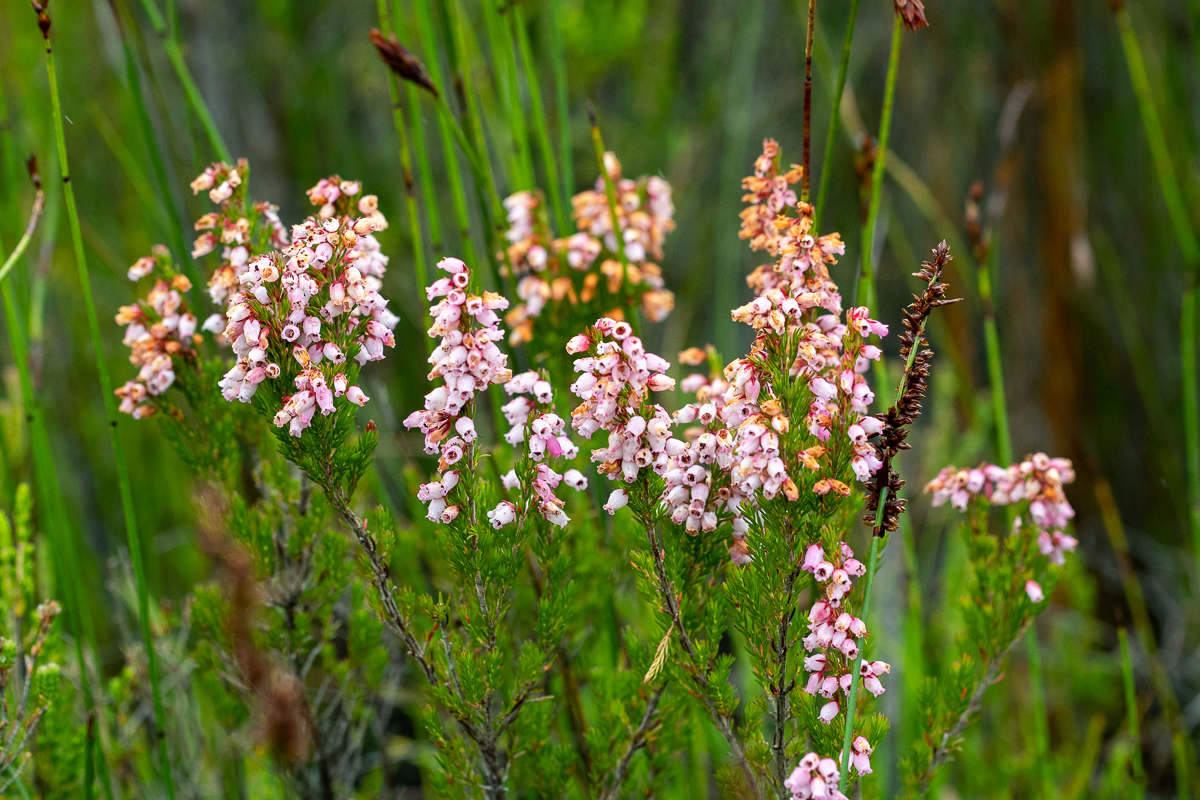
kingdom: Plantae
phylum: Tracheophyta
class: Magnoliopsida
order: Ericales
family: Ericaceae
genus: Erica
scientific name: Erica tenella
